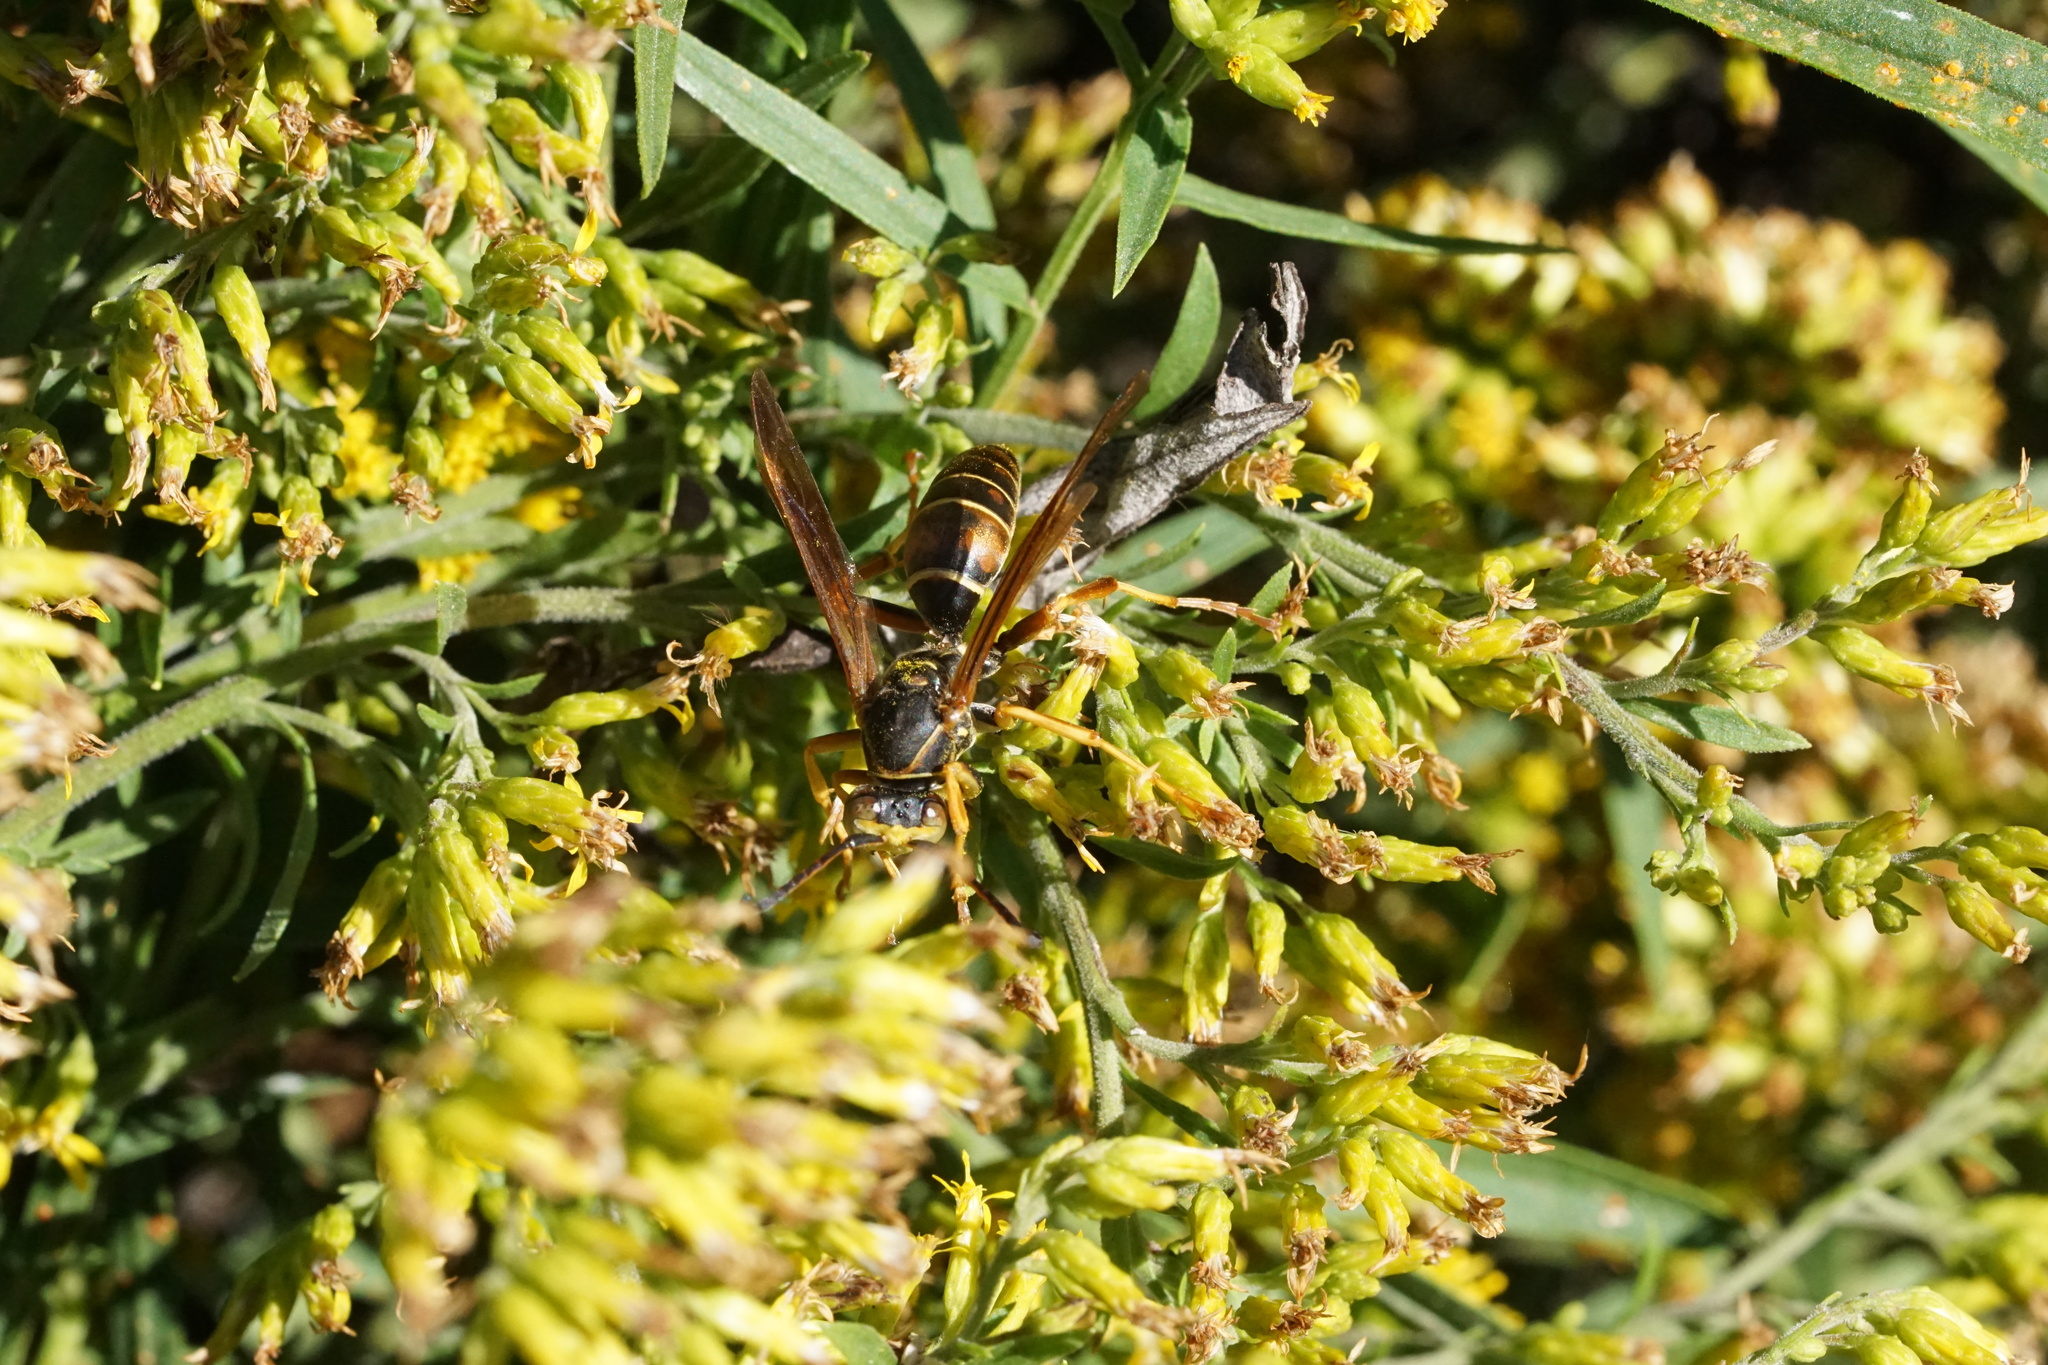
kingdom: Animalia
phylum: Arthropoda
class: Insecta
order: Hymenoptera
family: Eumenidae
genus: Polistes
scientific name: Polistes fuscatus
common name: Dark paper wasp
